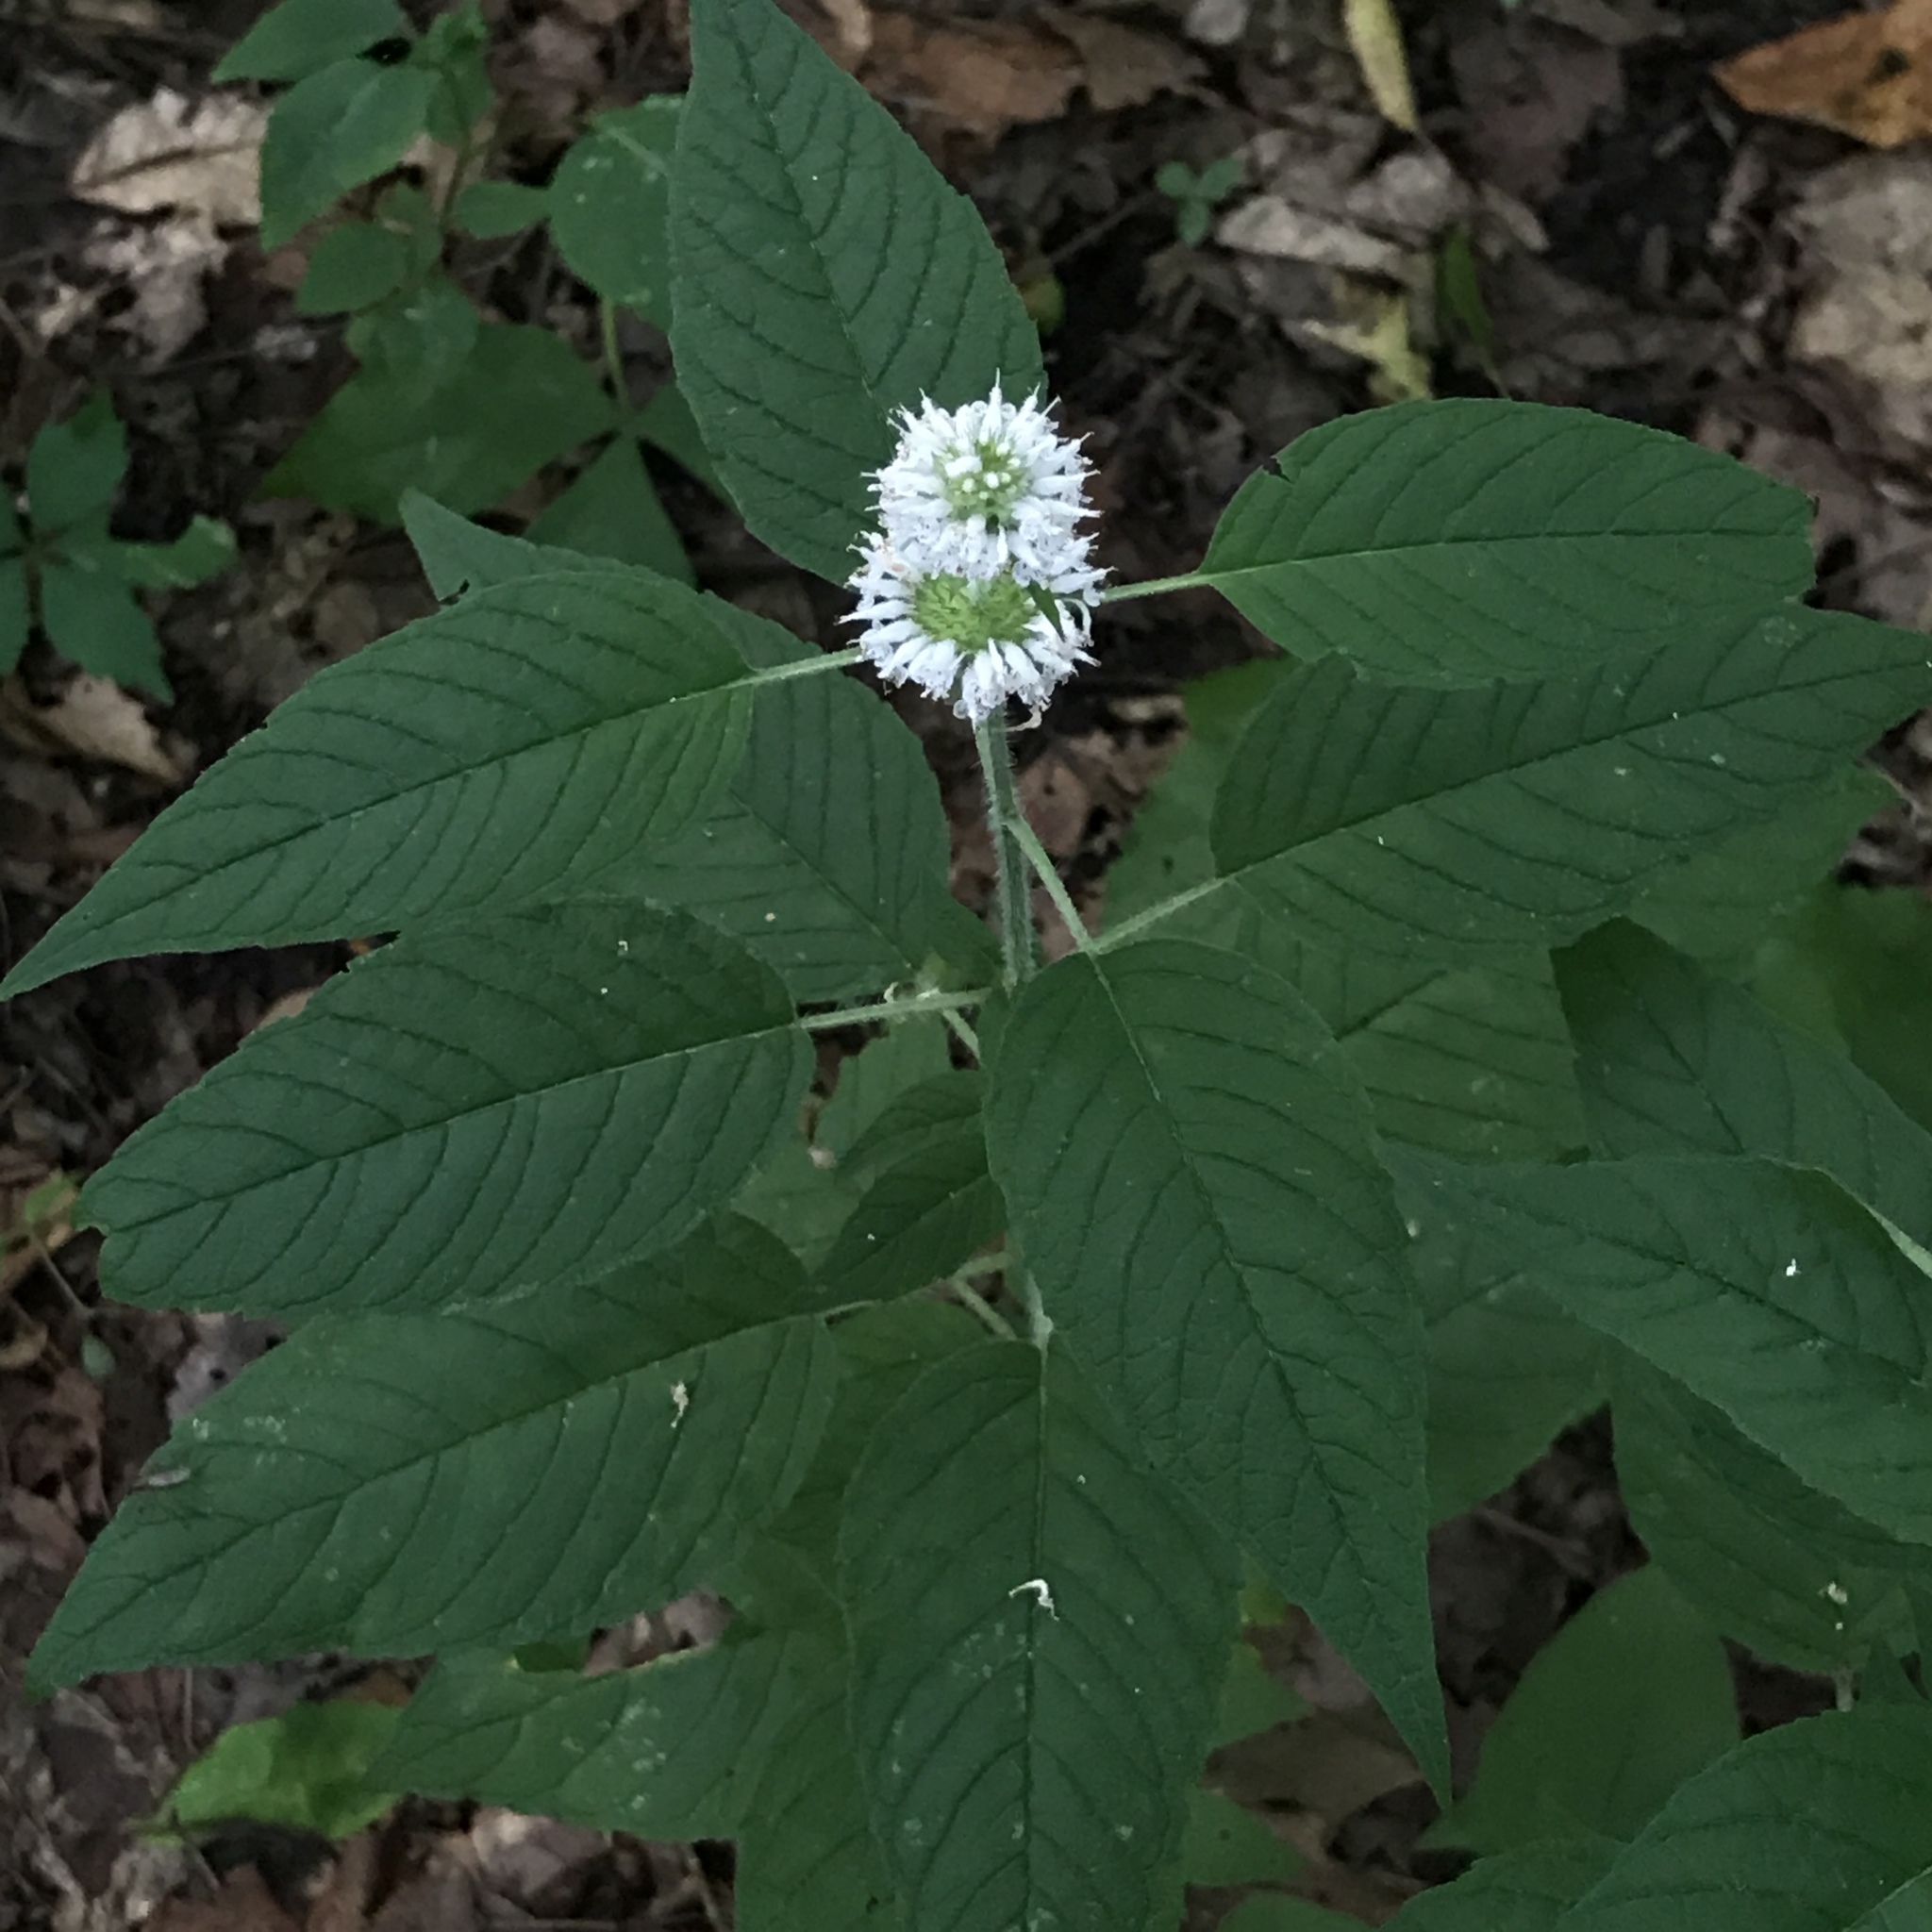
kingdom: Plantae
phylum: Tracheophyta
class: Magnoliopsida
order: Lamiales
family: Lamiaceae
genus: Blephilia
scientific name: Blephilia hirsuta
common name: Hairy blephilia
